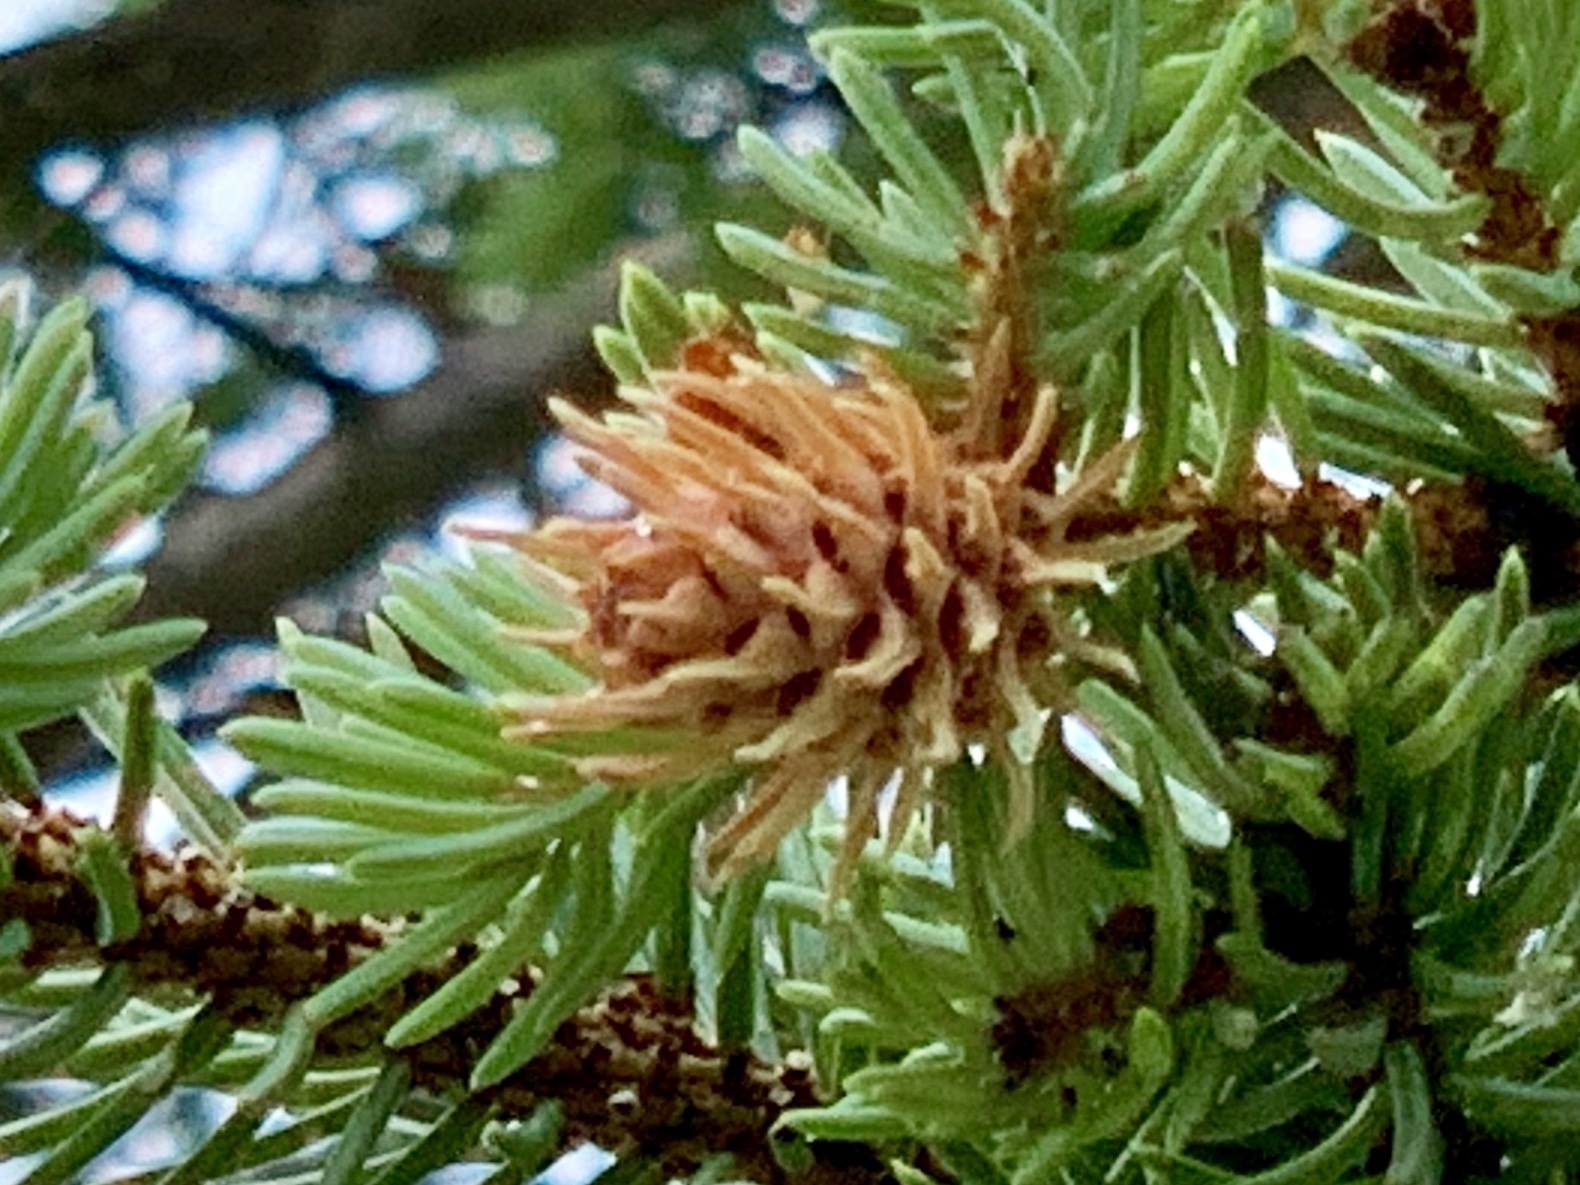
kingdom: Animalia
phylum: Arthropoda
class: Insecta
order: Hemiptera
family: Adelgidae
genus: Adelges
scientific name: Adelges cooleyi
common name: Cooley spruce gall adelgid
